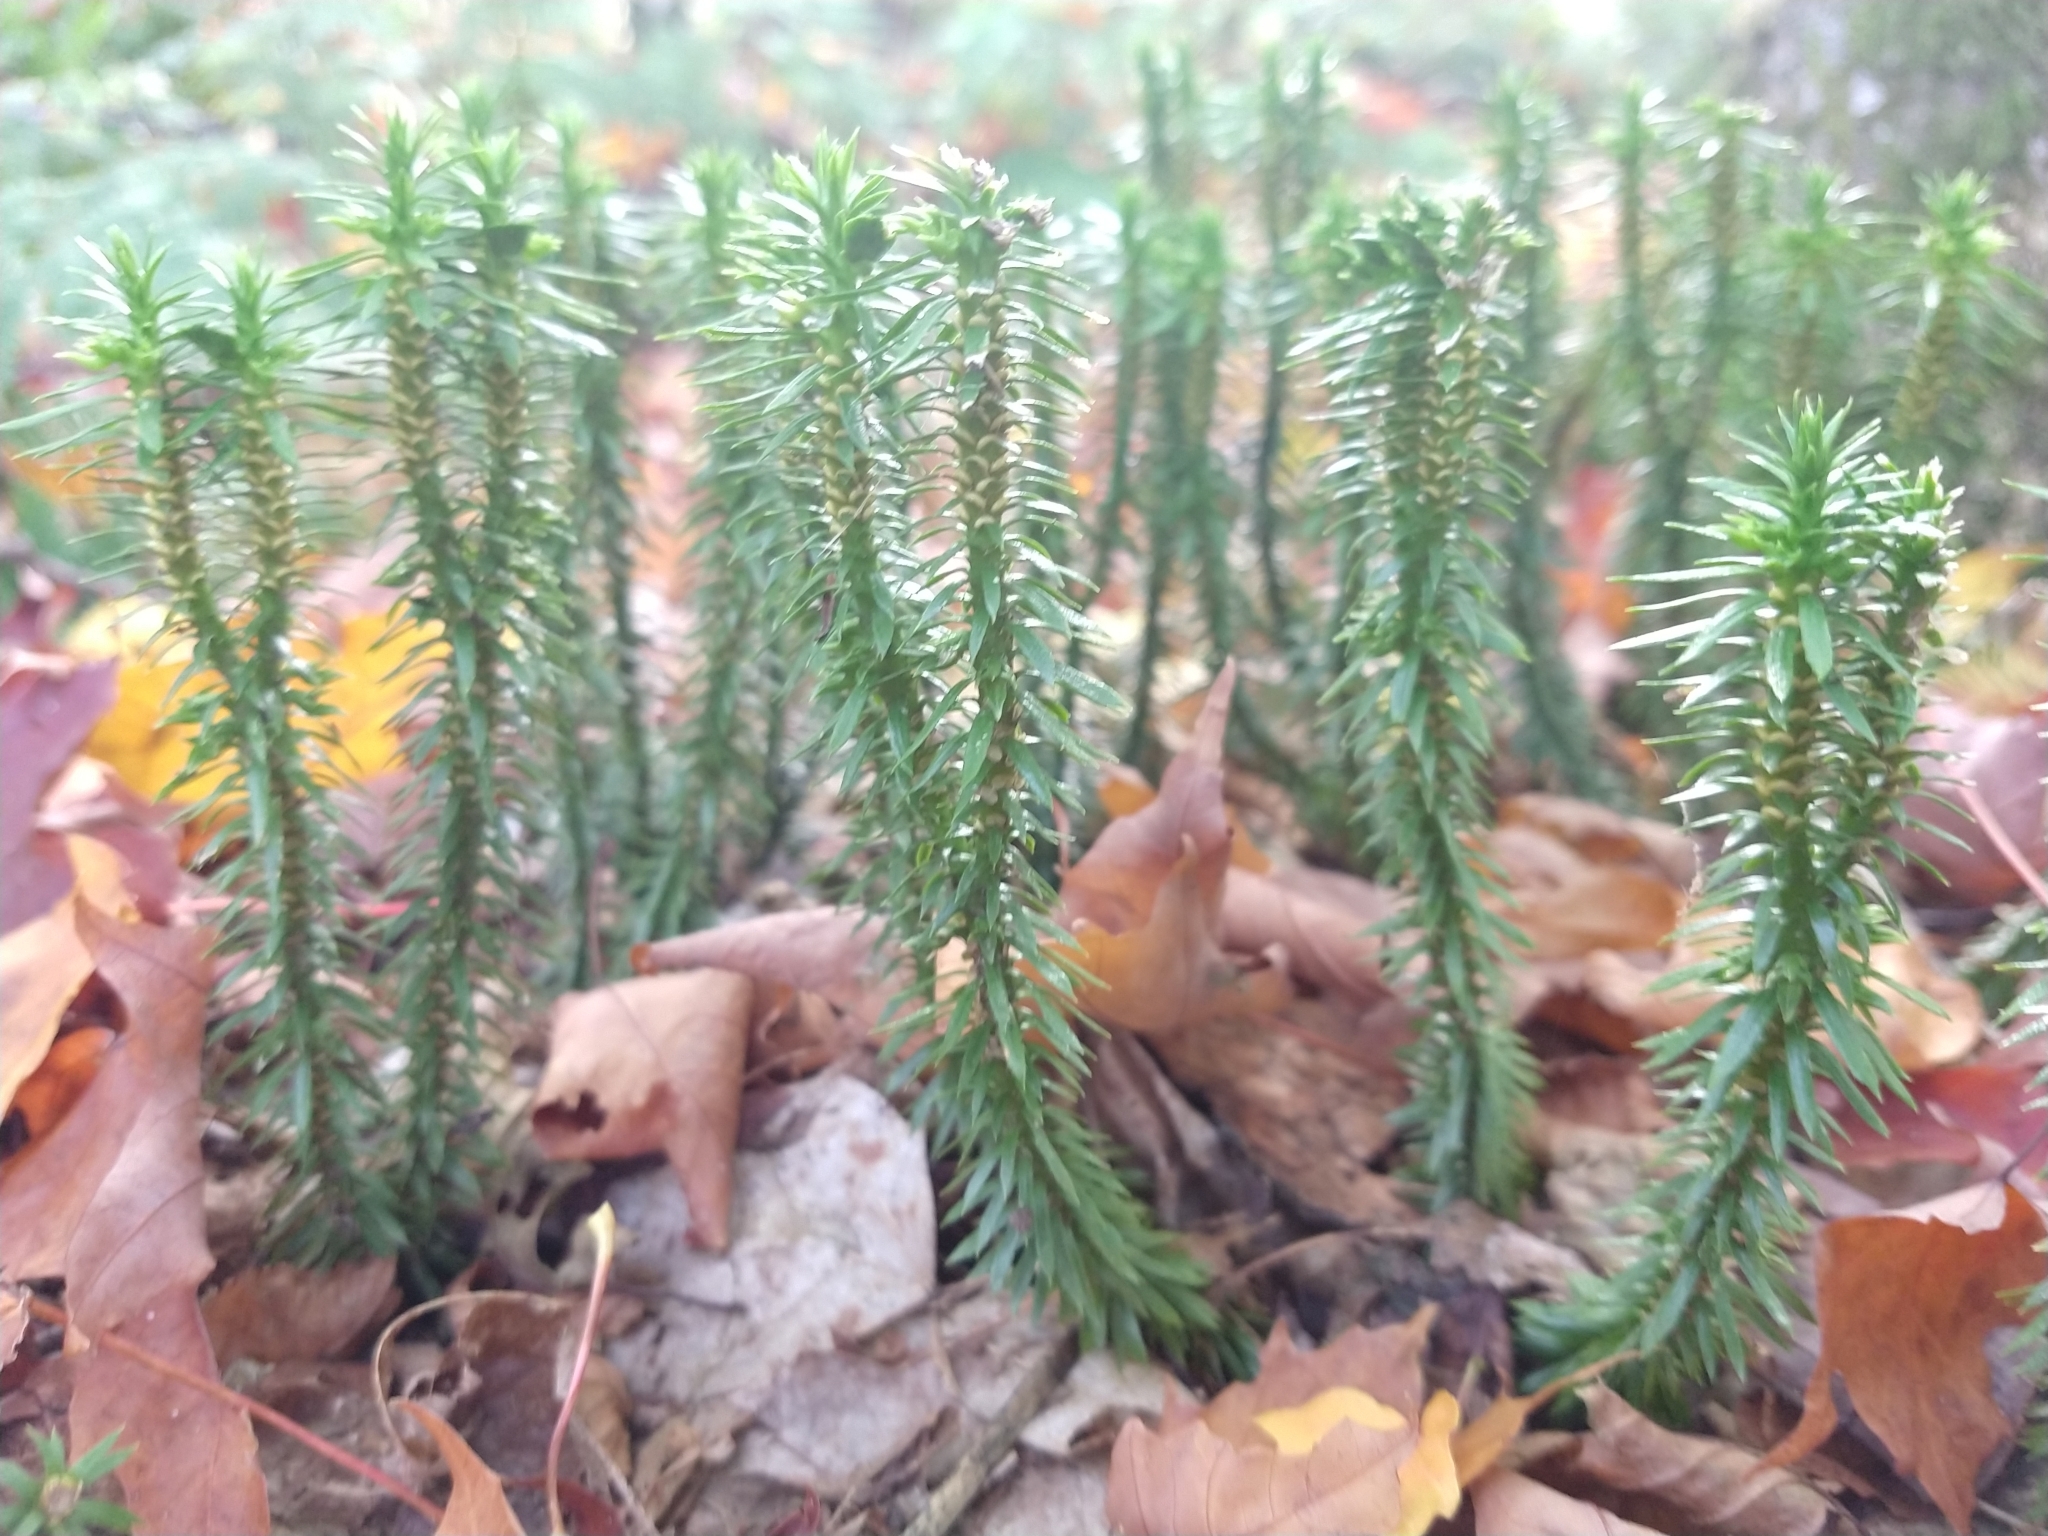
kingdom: Plantae
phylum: Tracheophyta
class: Lycopodiopsida
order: Lycopodiales
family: Lycopodiaceae
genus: Huperzia
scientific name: Huperzia lucidula
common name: Shining clubmoss
